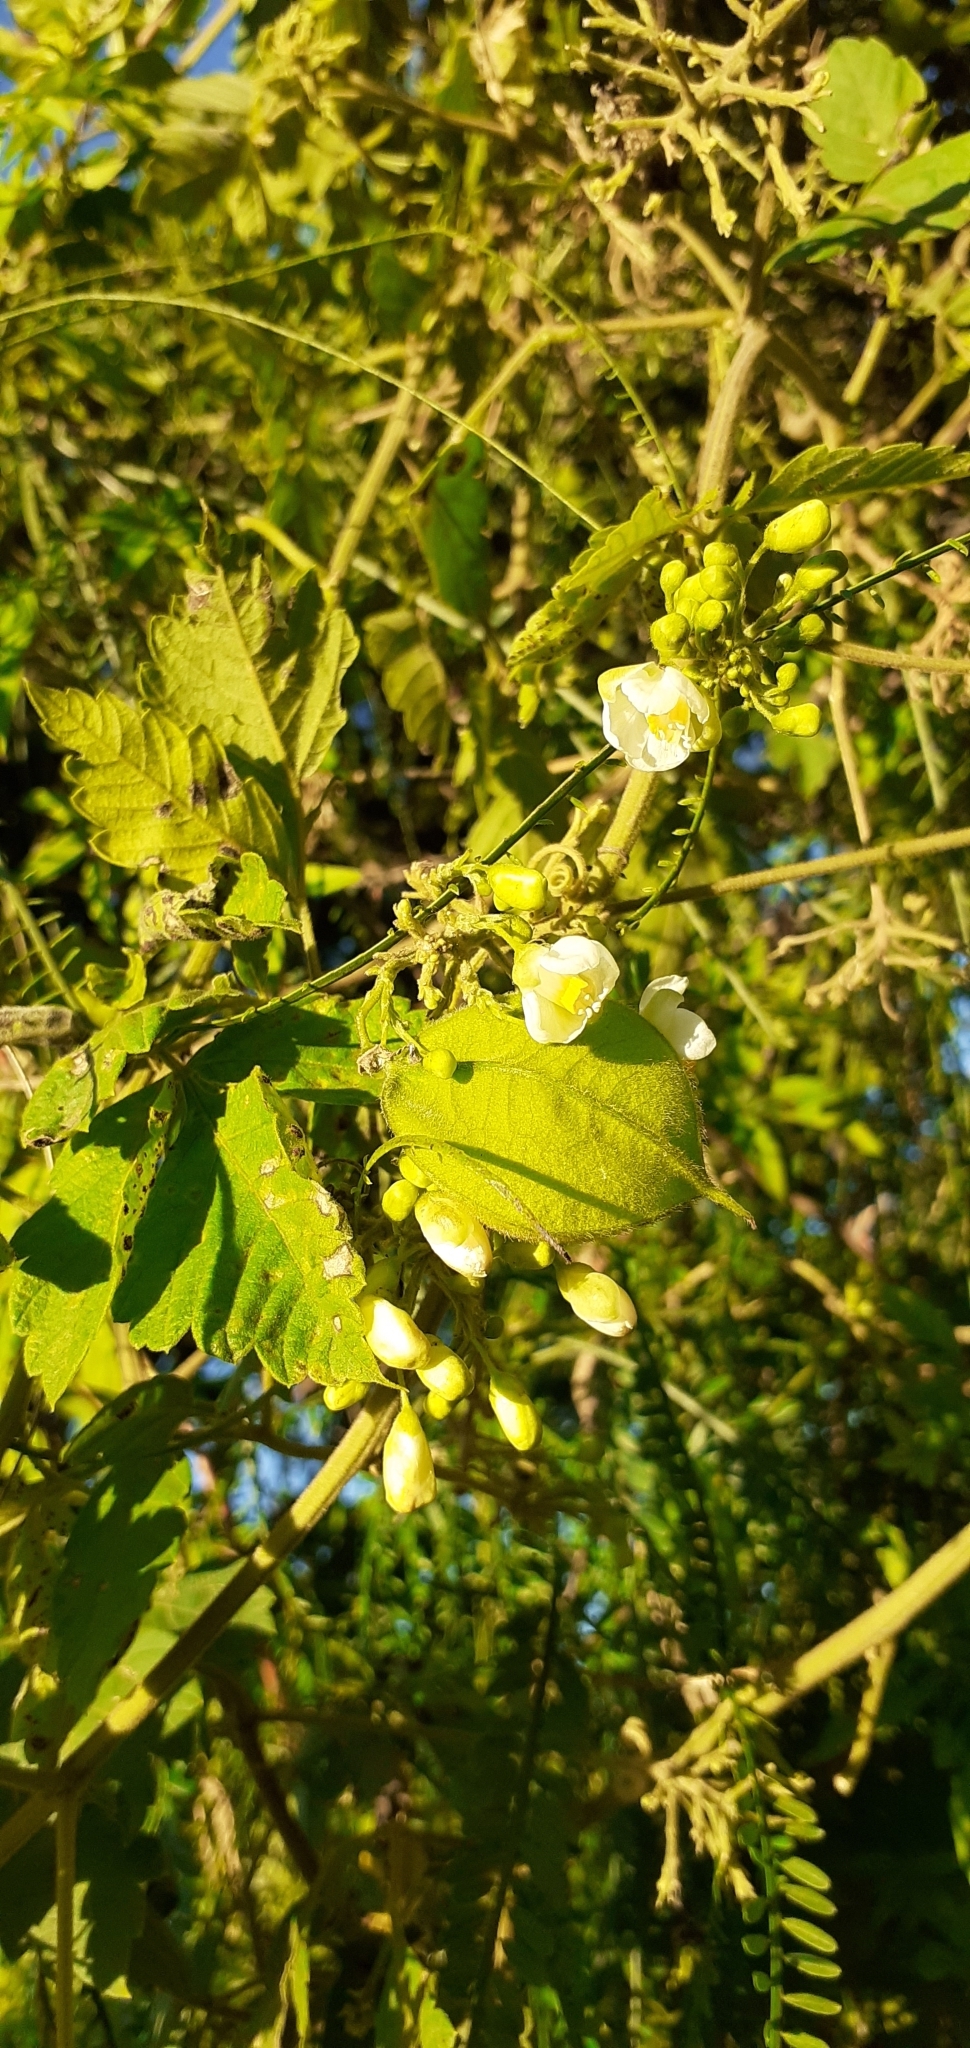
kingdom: Plantae
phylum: Tracheophyta
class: Magnoliopsida
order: Sapindales
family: Sapindaceae
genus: Cardiospermum
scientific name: Cardiospermum grandiflorum
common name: Balloon vine
